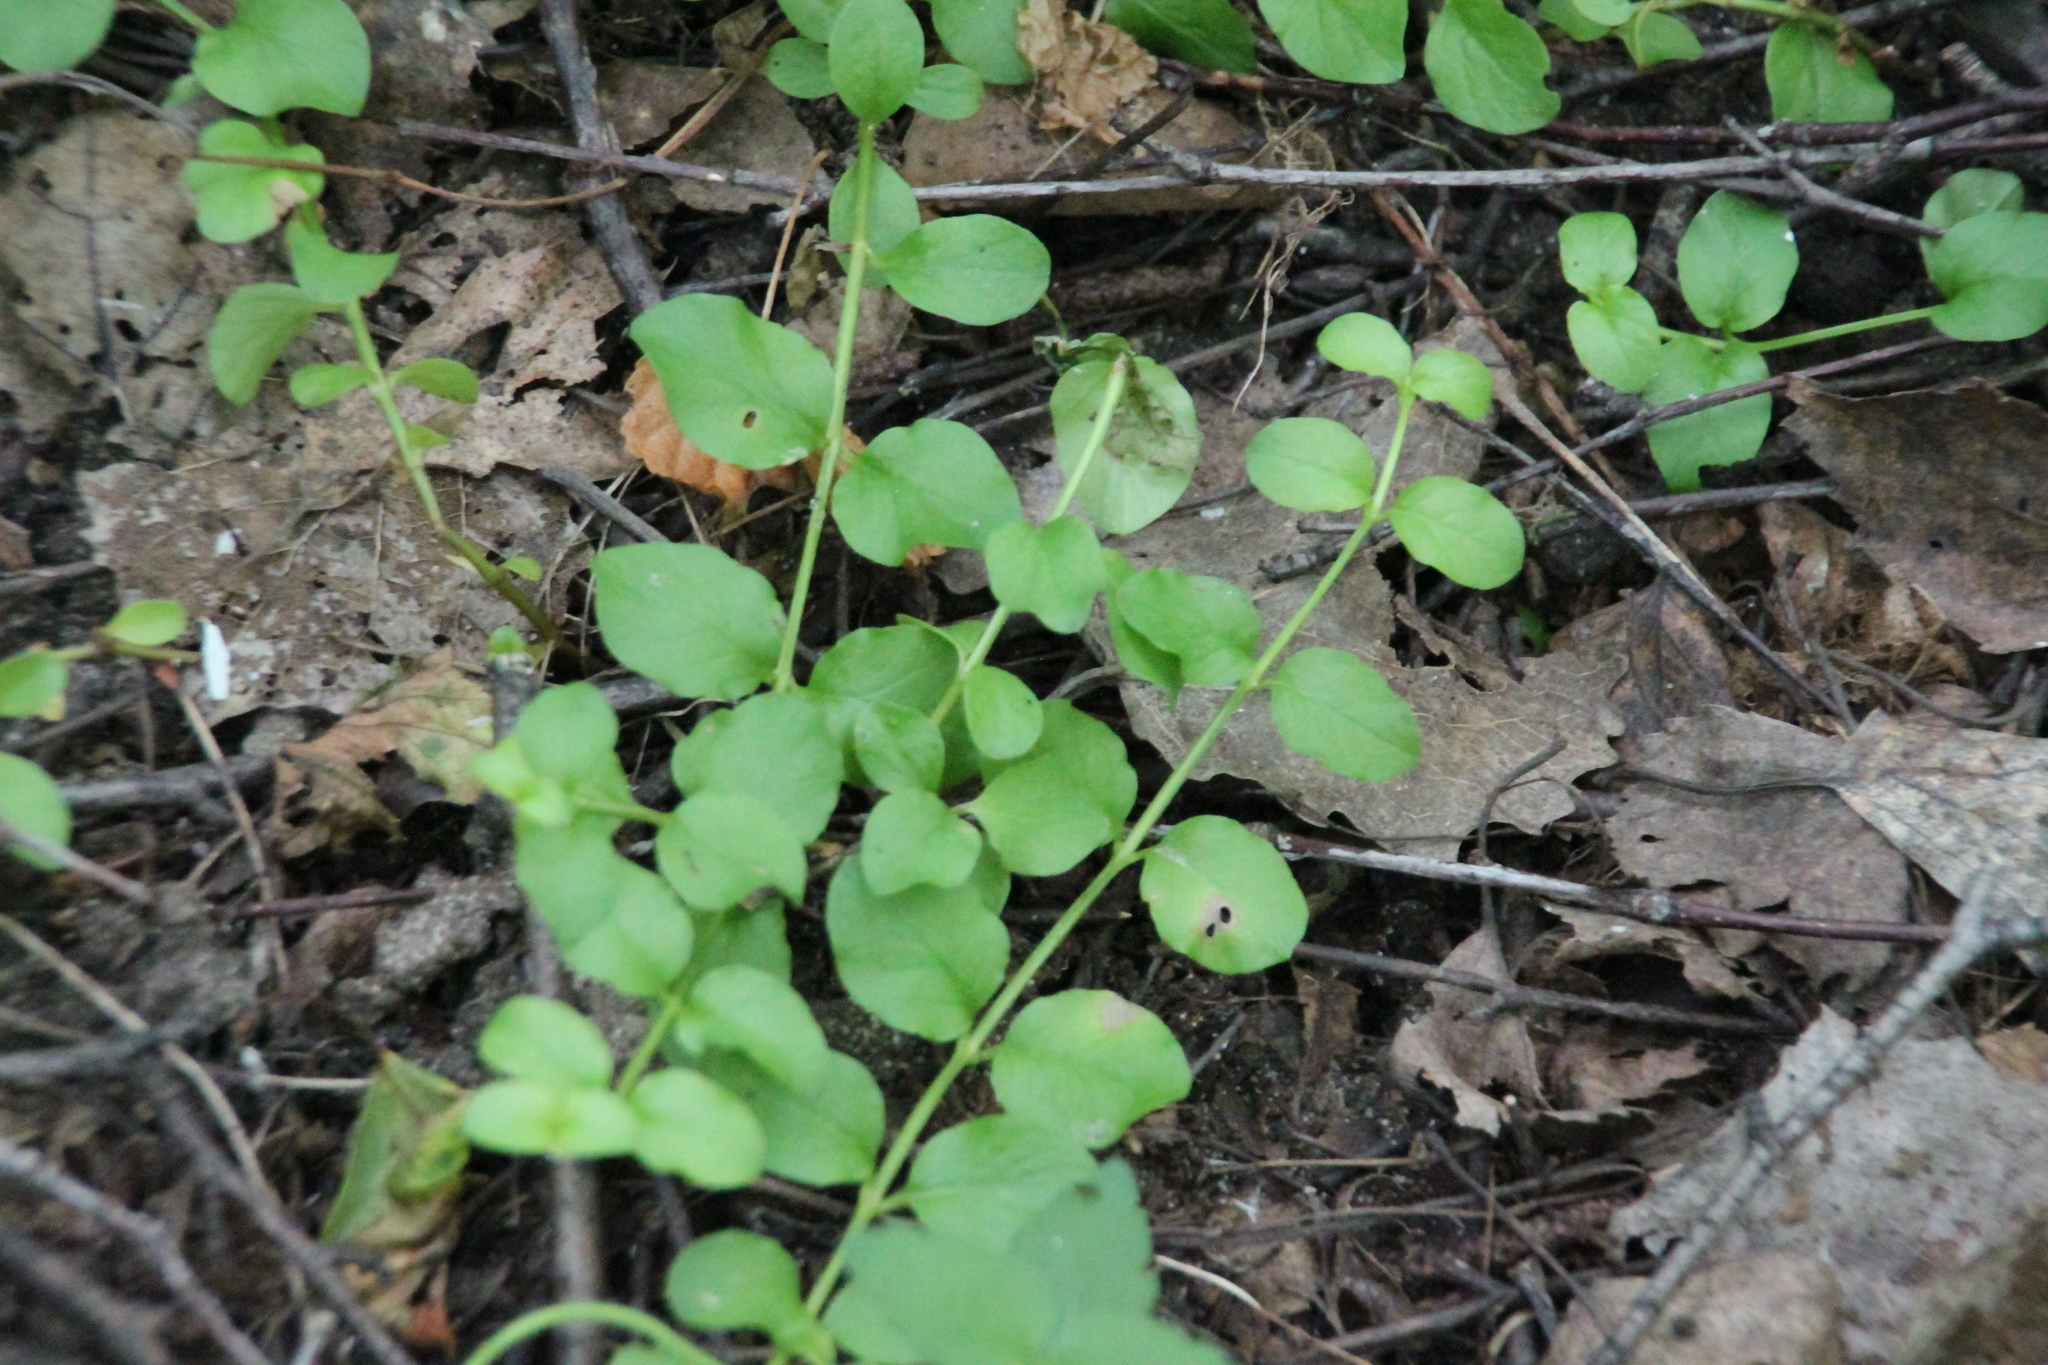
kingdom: Plantae
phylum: Tracheophyta
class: Magnoliopsida
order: Ericales
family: Primulaceae
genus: Lysimachia
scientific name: Lysimachia nummularia
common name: Moneywort
